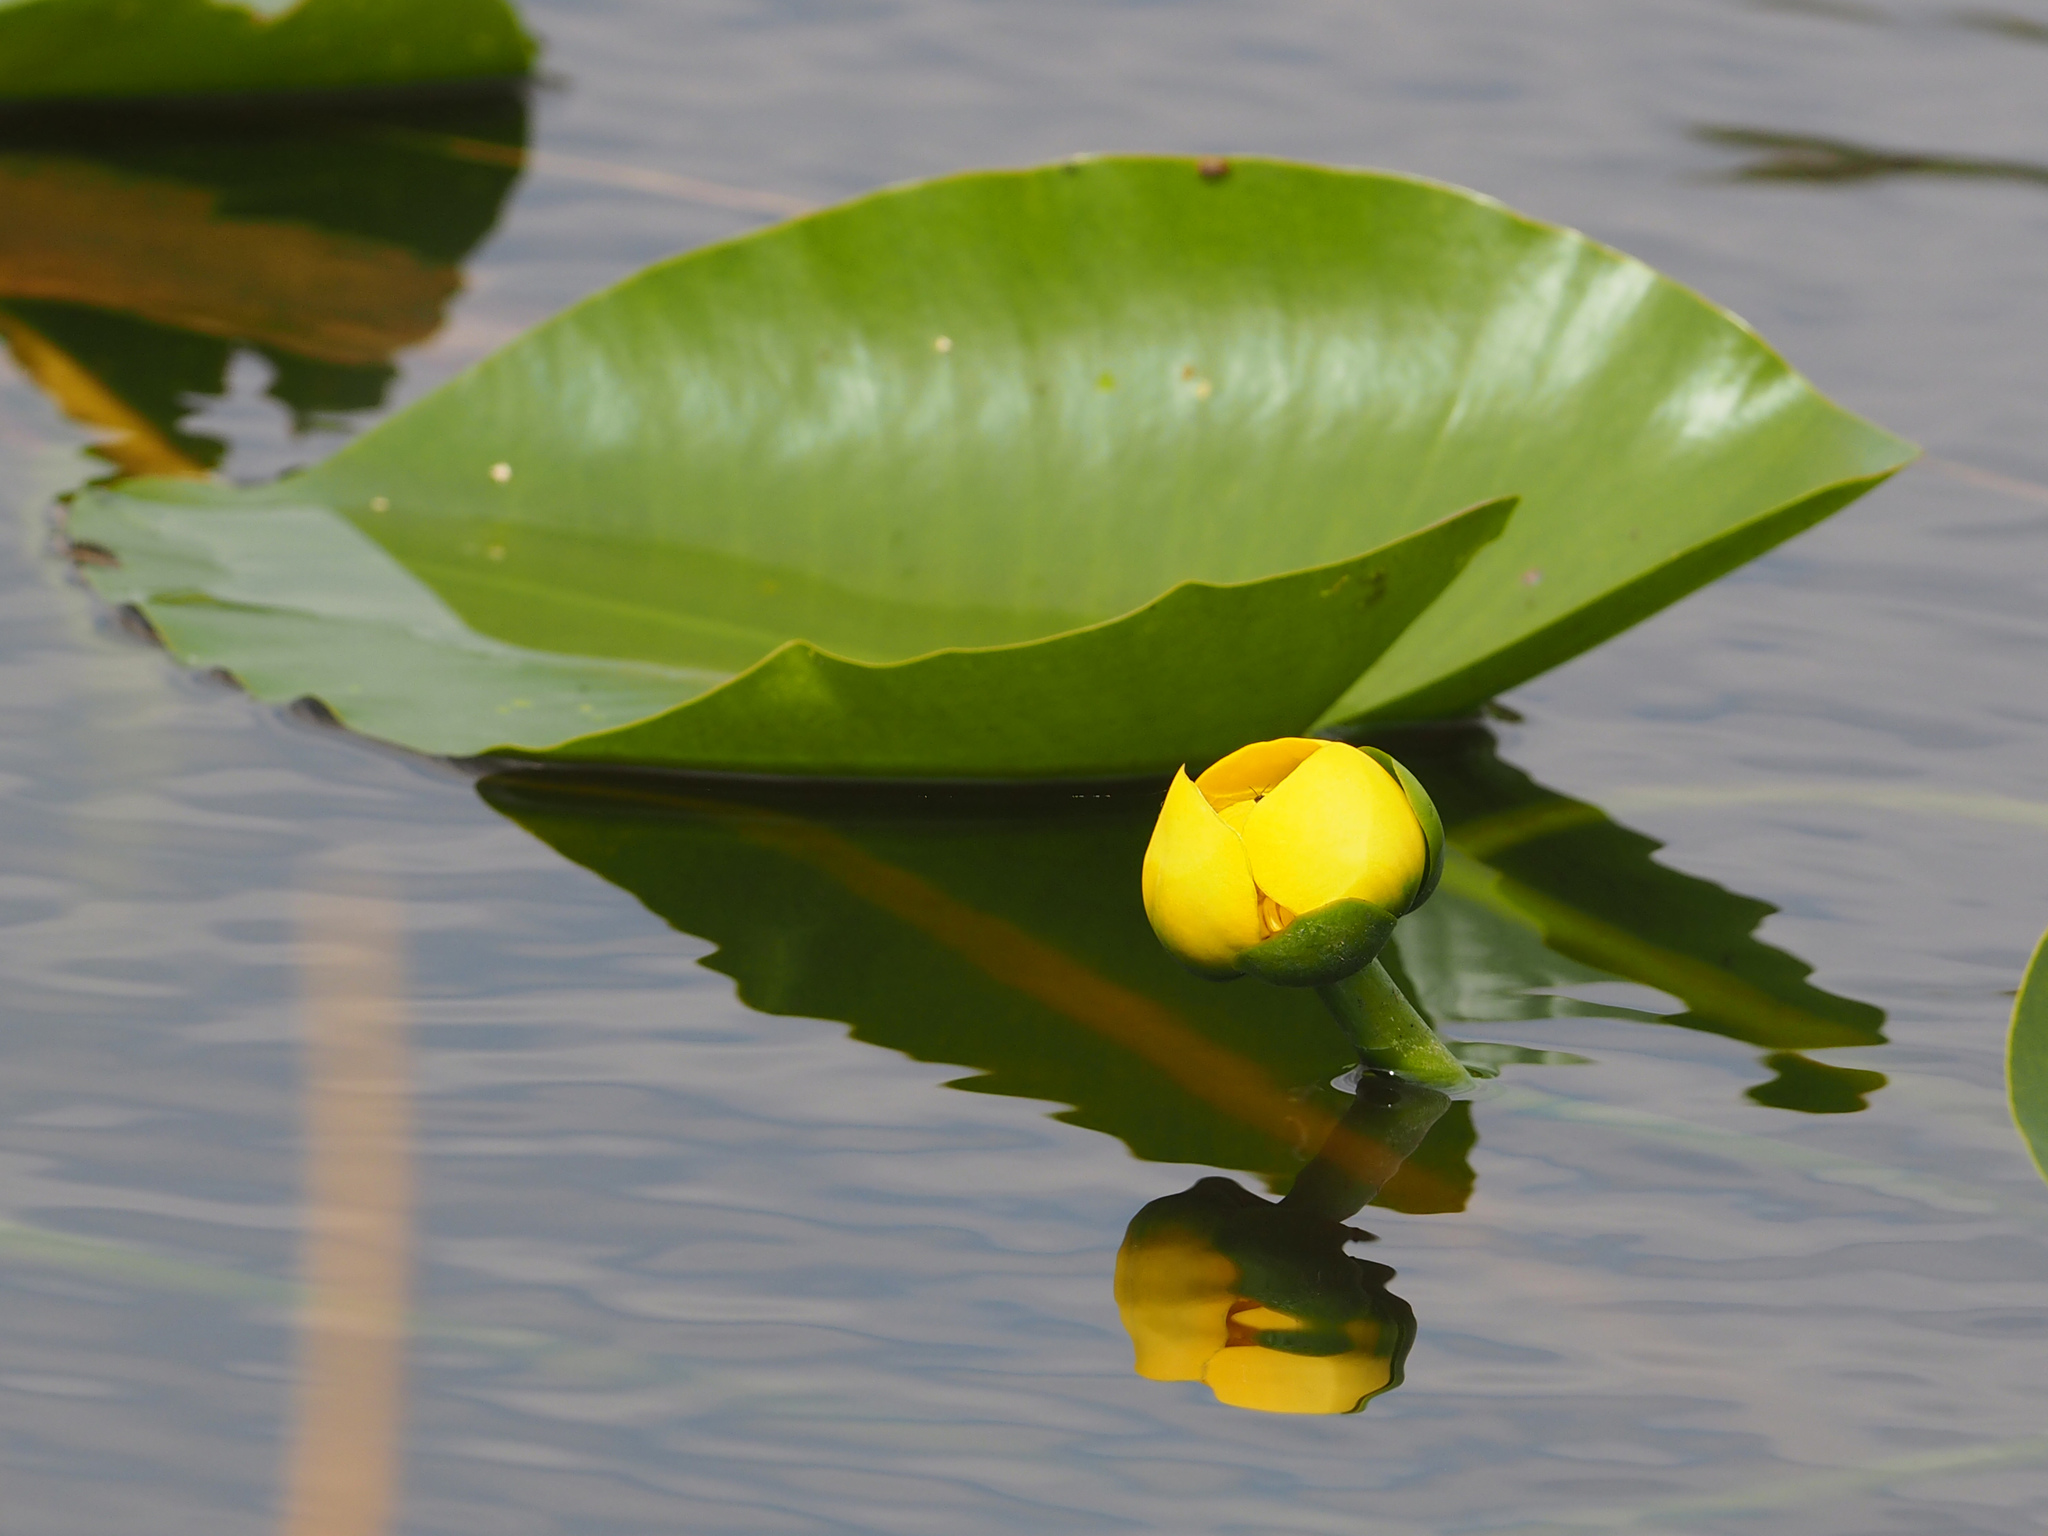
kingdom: Plantae
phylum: Tracheophyta
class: Magnoliopsida
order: Nymphaeales
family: Nymphaeaceae
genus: Nuphar
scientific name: Nuphar advena
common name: Spatter-dock
